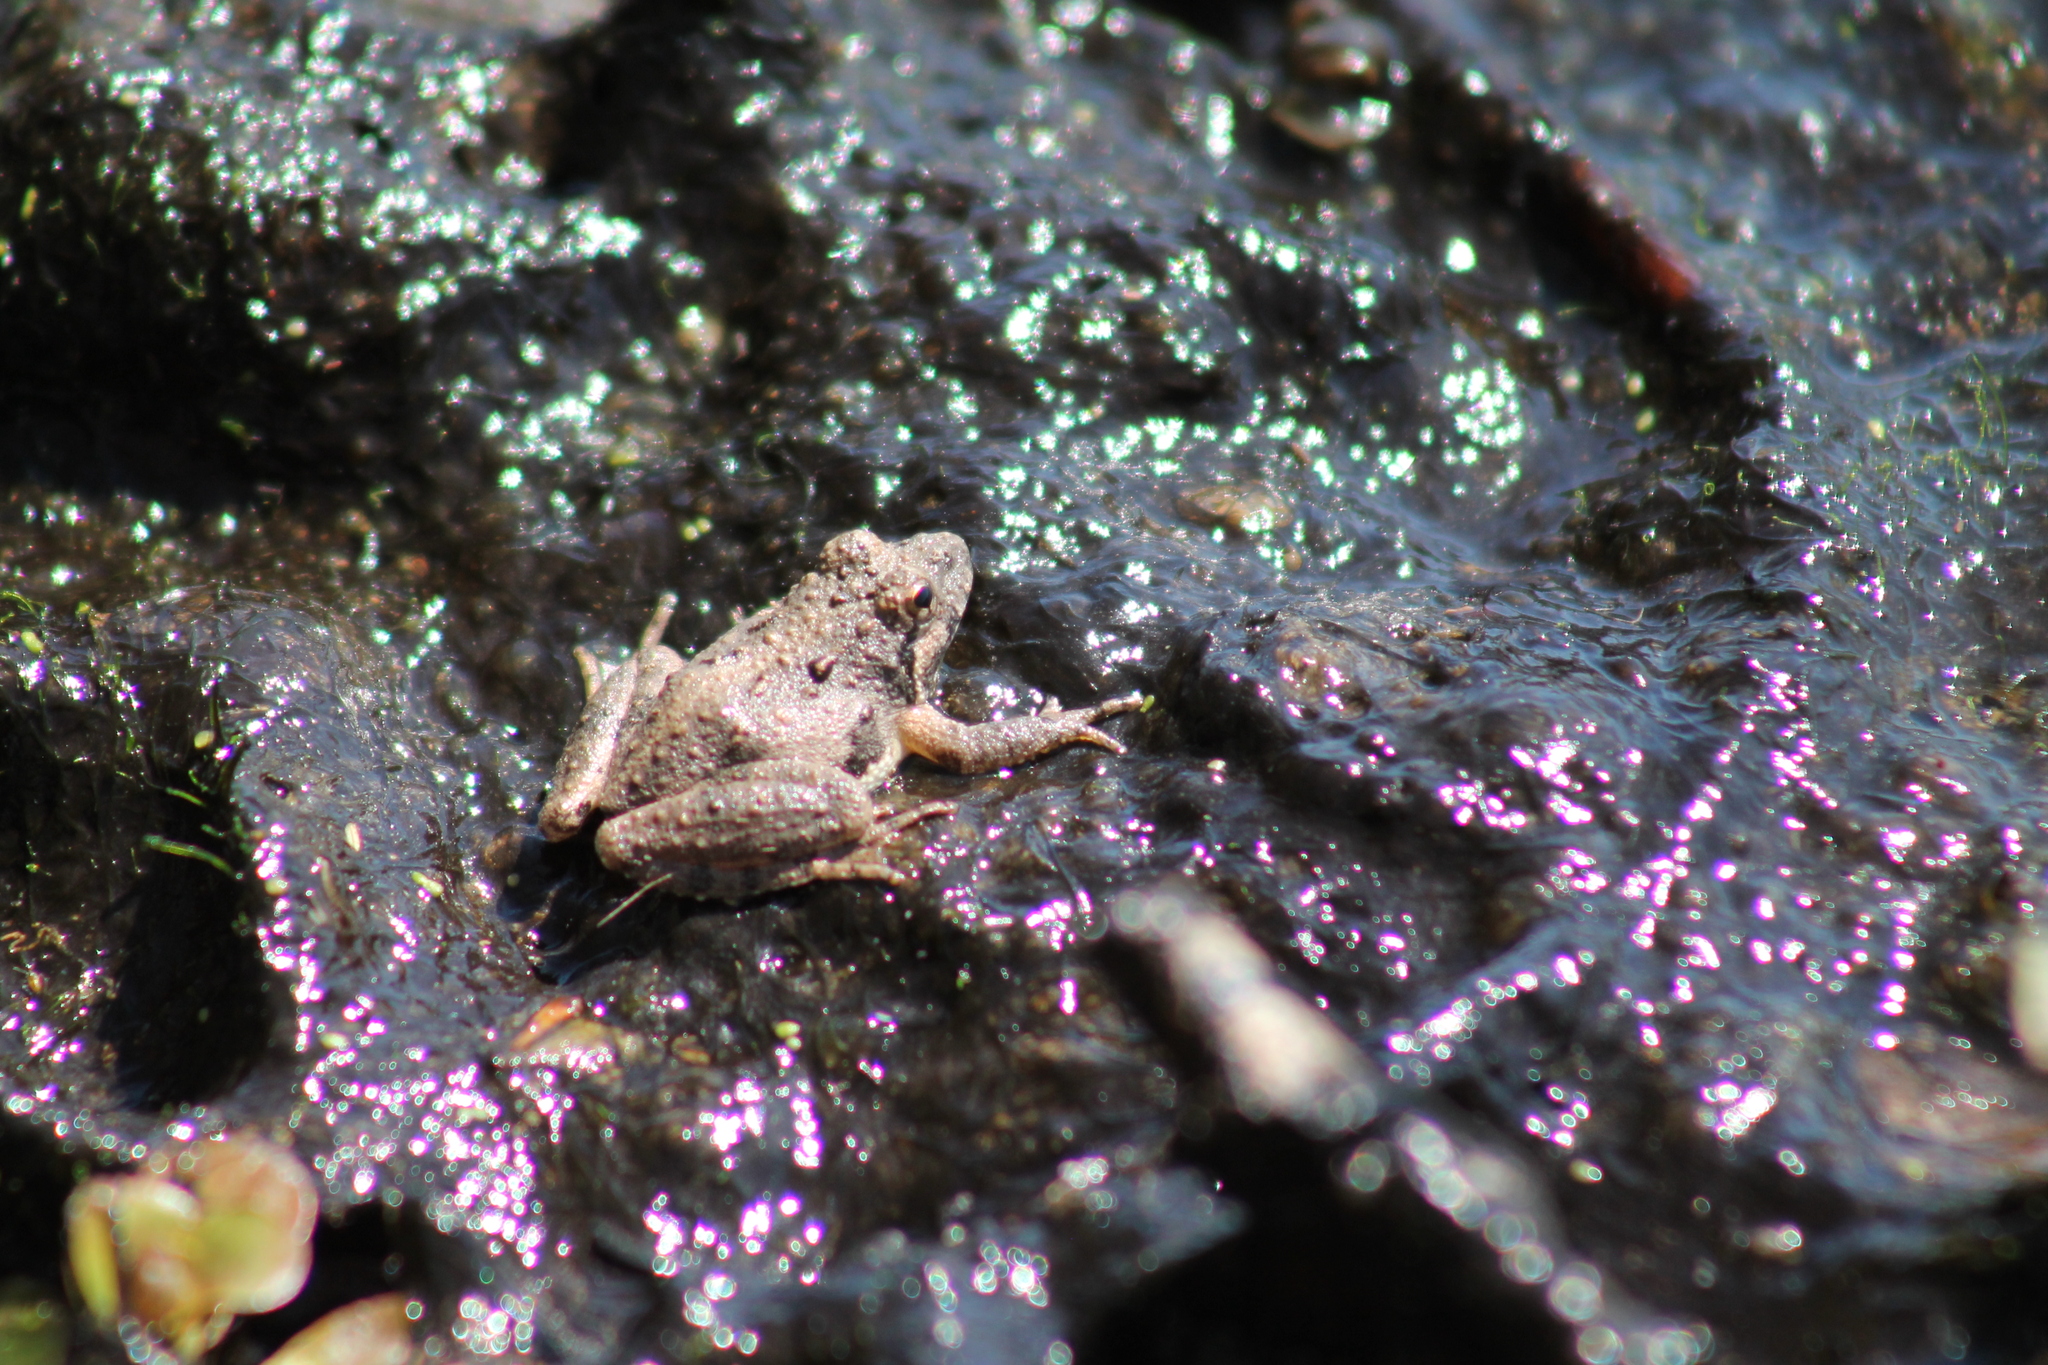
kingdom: Animalia
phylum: Chordata
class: Amphibia
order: Anura
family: Hylidae
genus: Acris
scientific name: Acris crepitans
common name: Northern cricket frog
